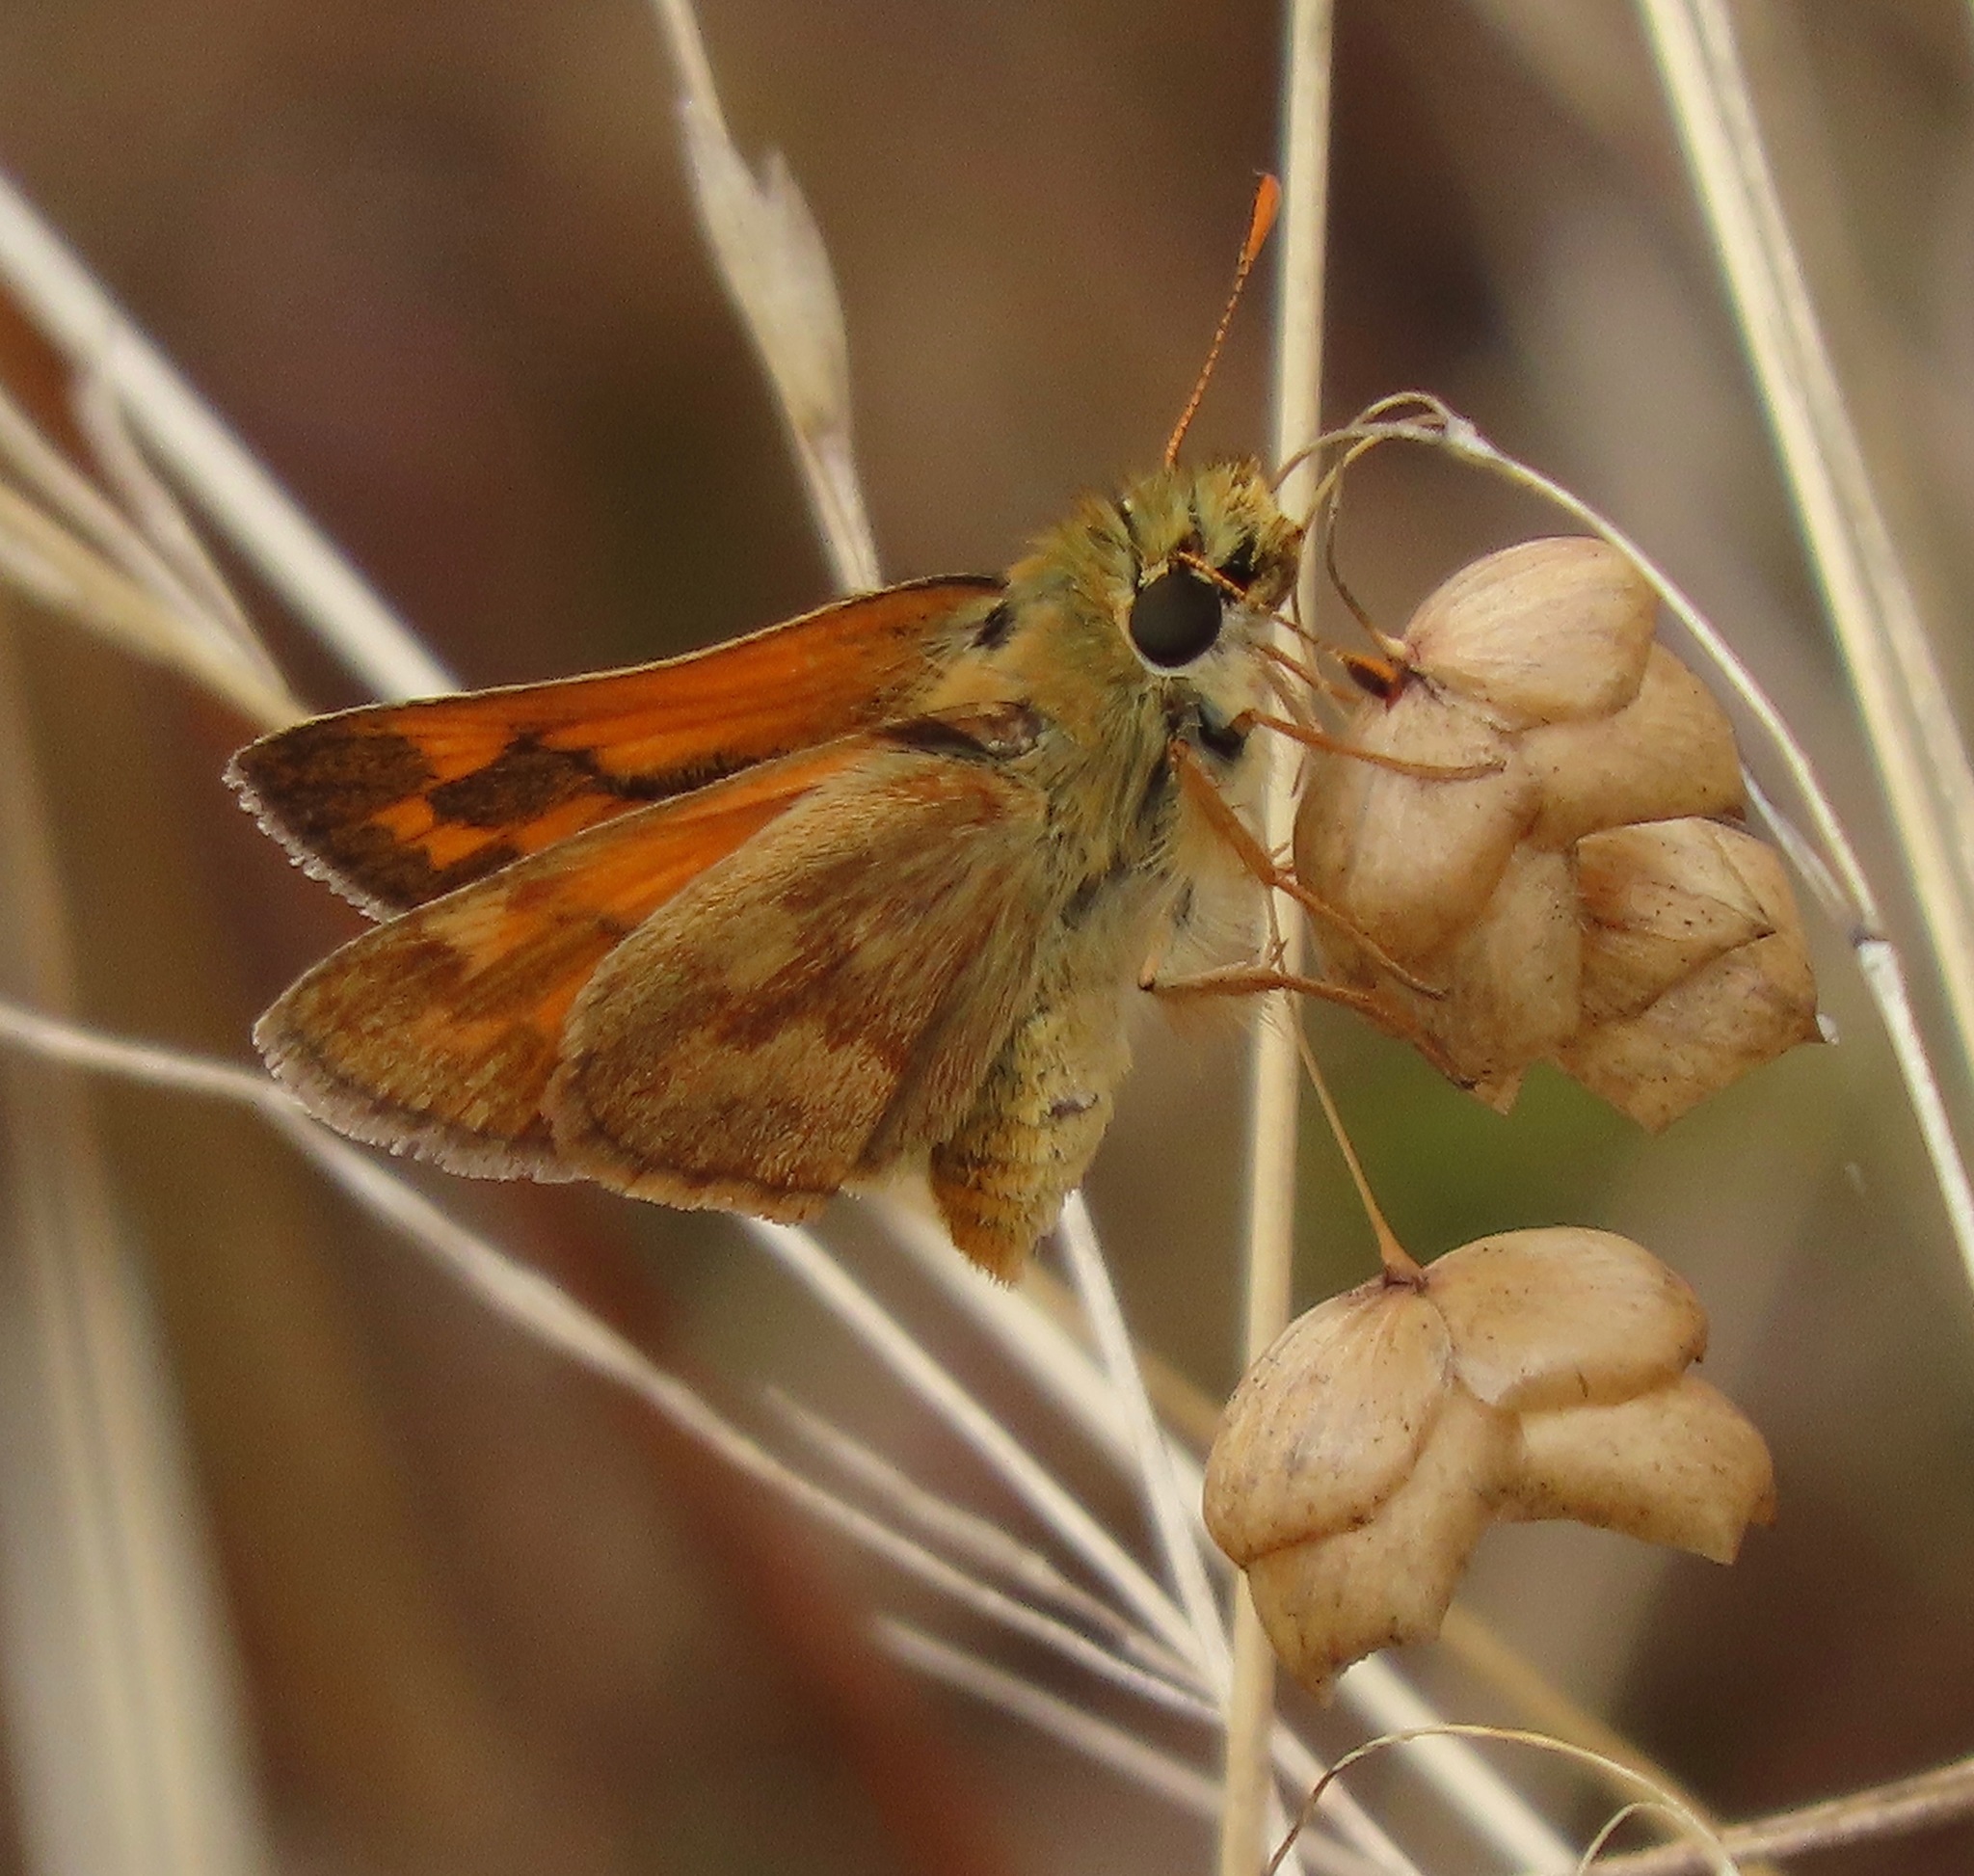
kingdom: Animalia
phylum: Arthropoda
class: Insecta
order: Lepidoptera
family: Hesperiidae
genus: Ochlodes
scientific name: Ochlodes sylvanoides
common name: Woodland skipper
